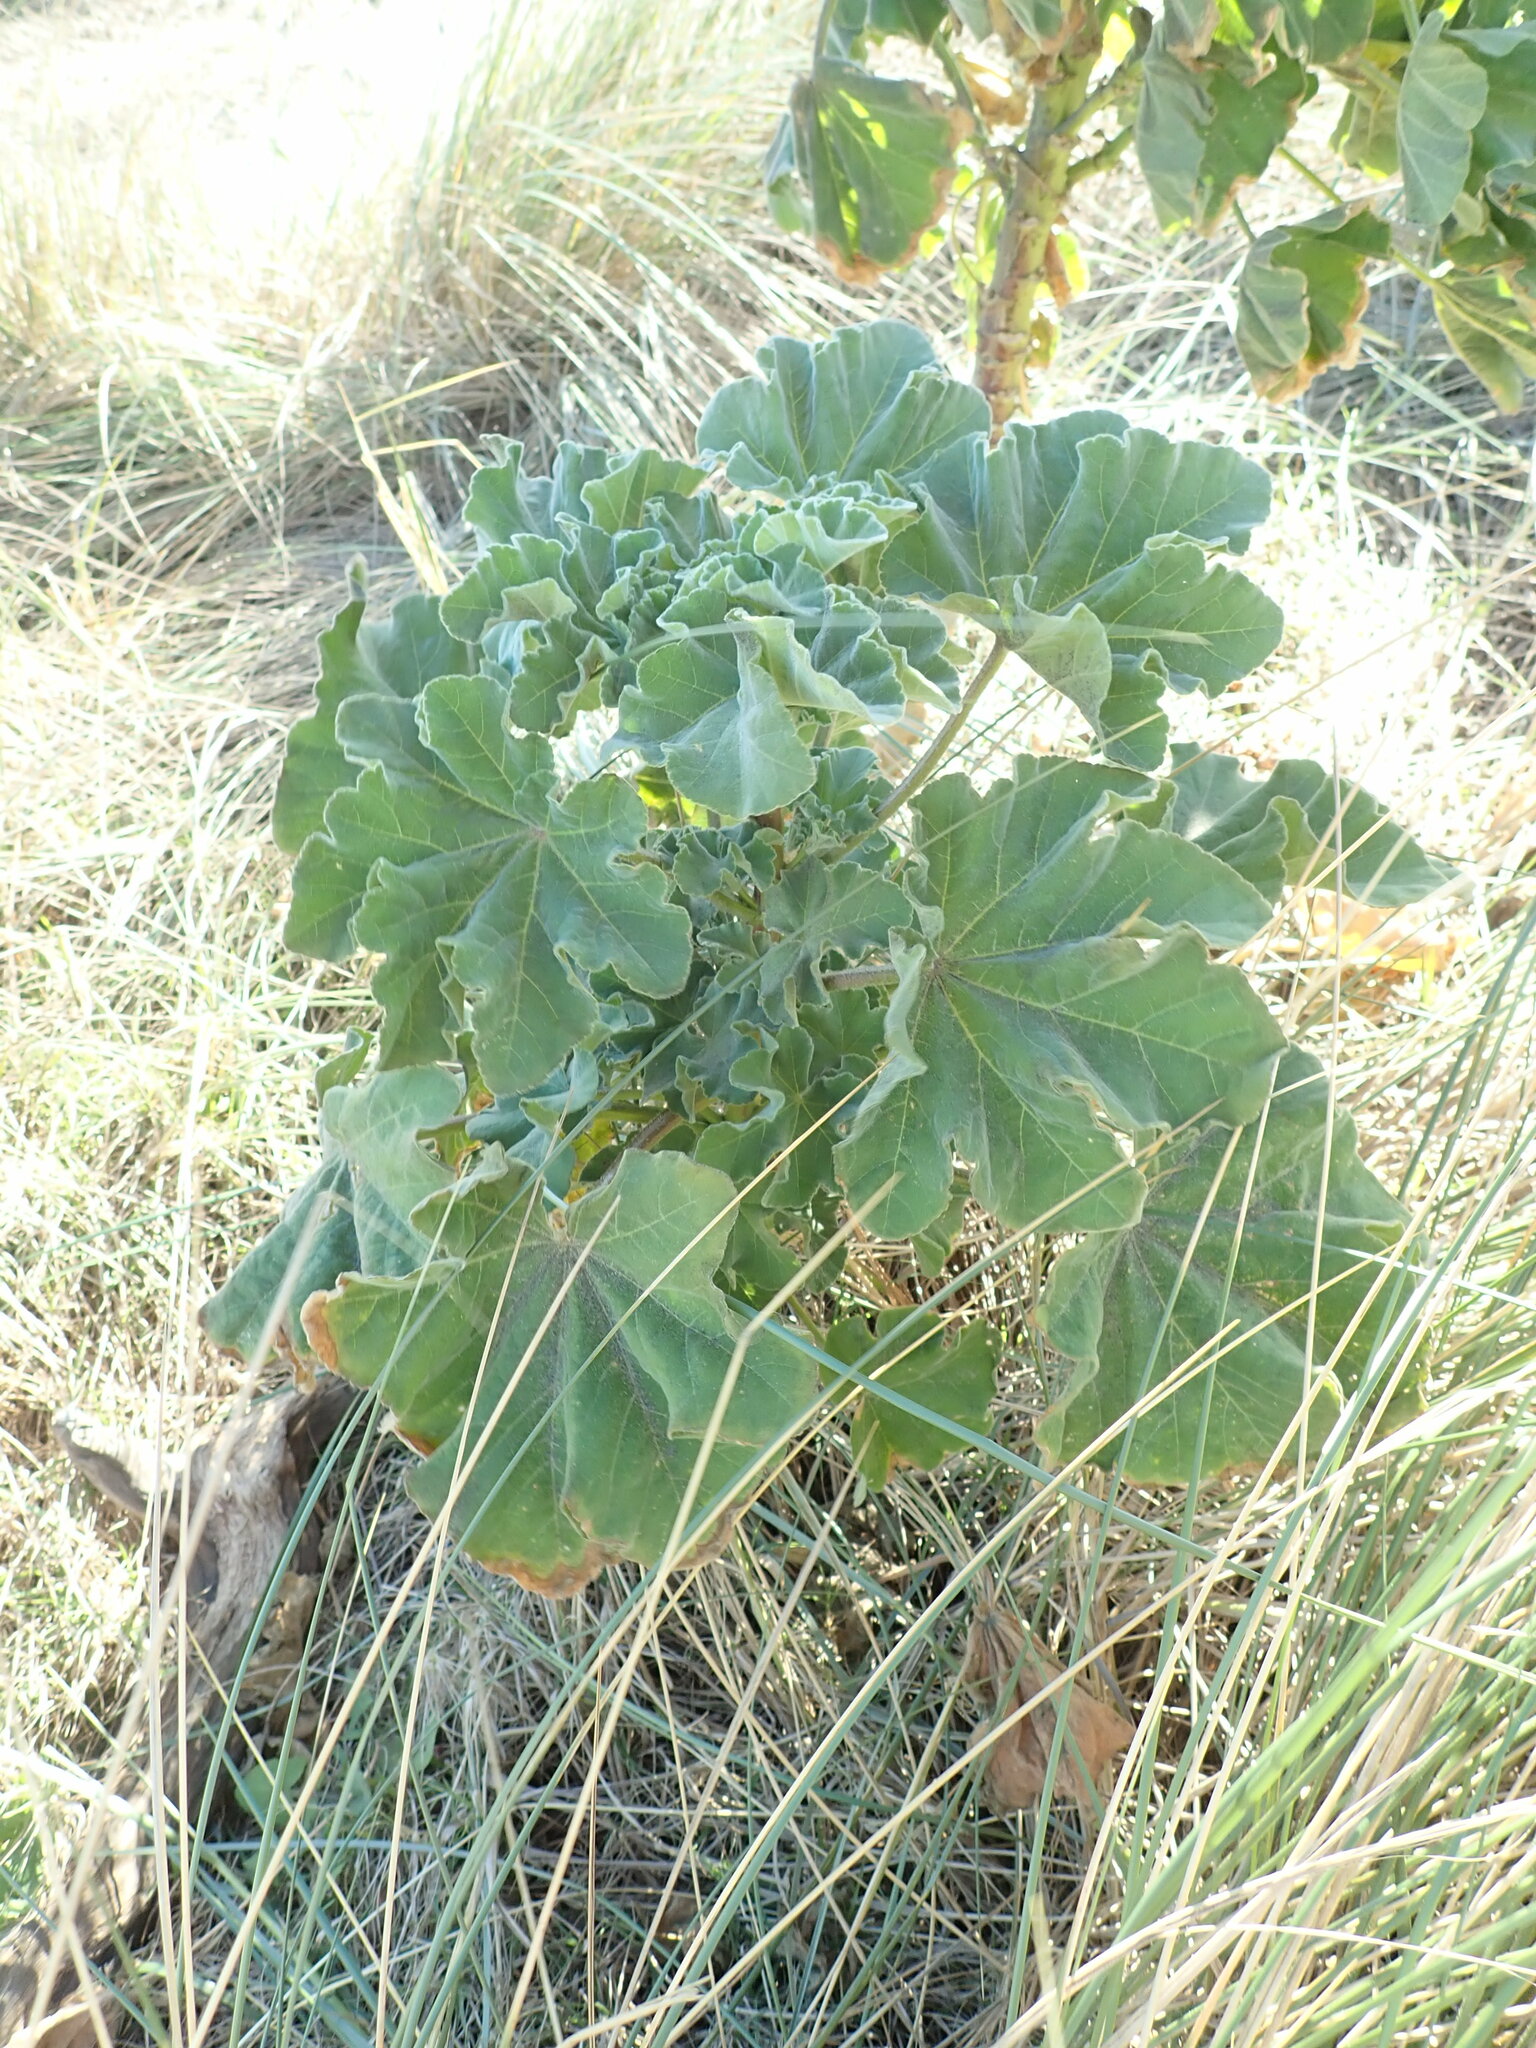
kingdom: Plantae
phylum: Tracheophyta
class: Magnoliopsida
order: Malvales
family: Malvaceae
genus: Malva
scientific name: Malva arborea
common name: Tree mallow
